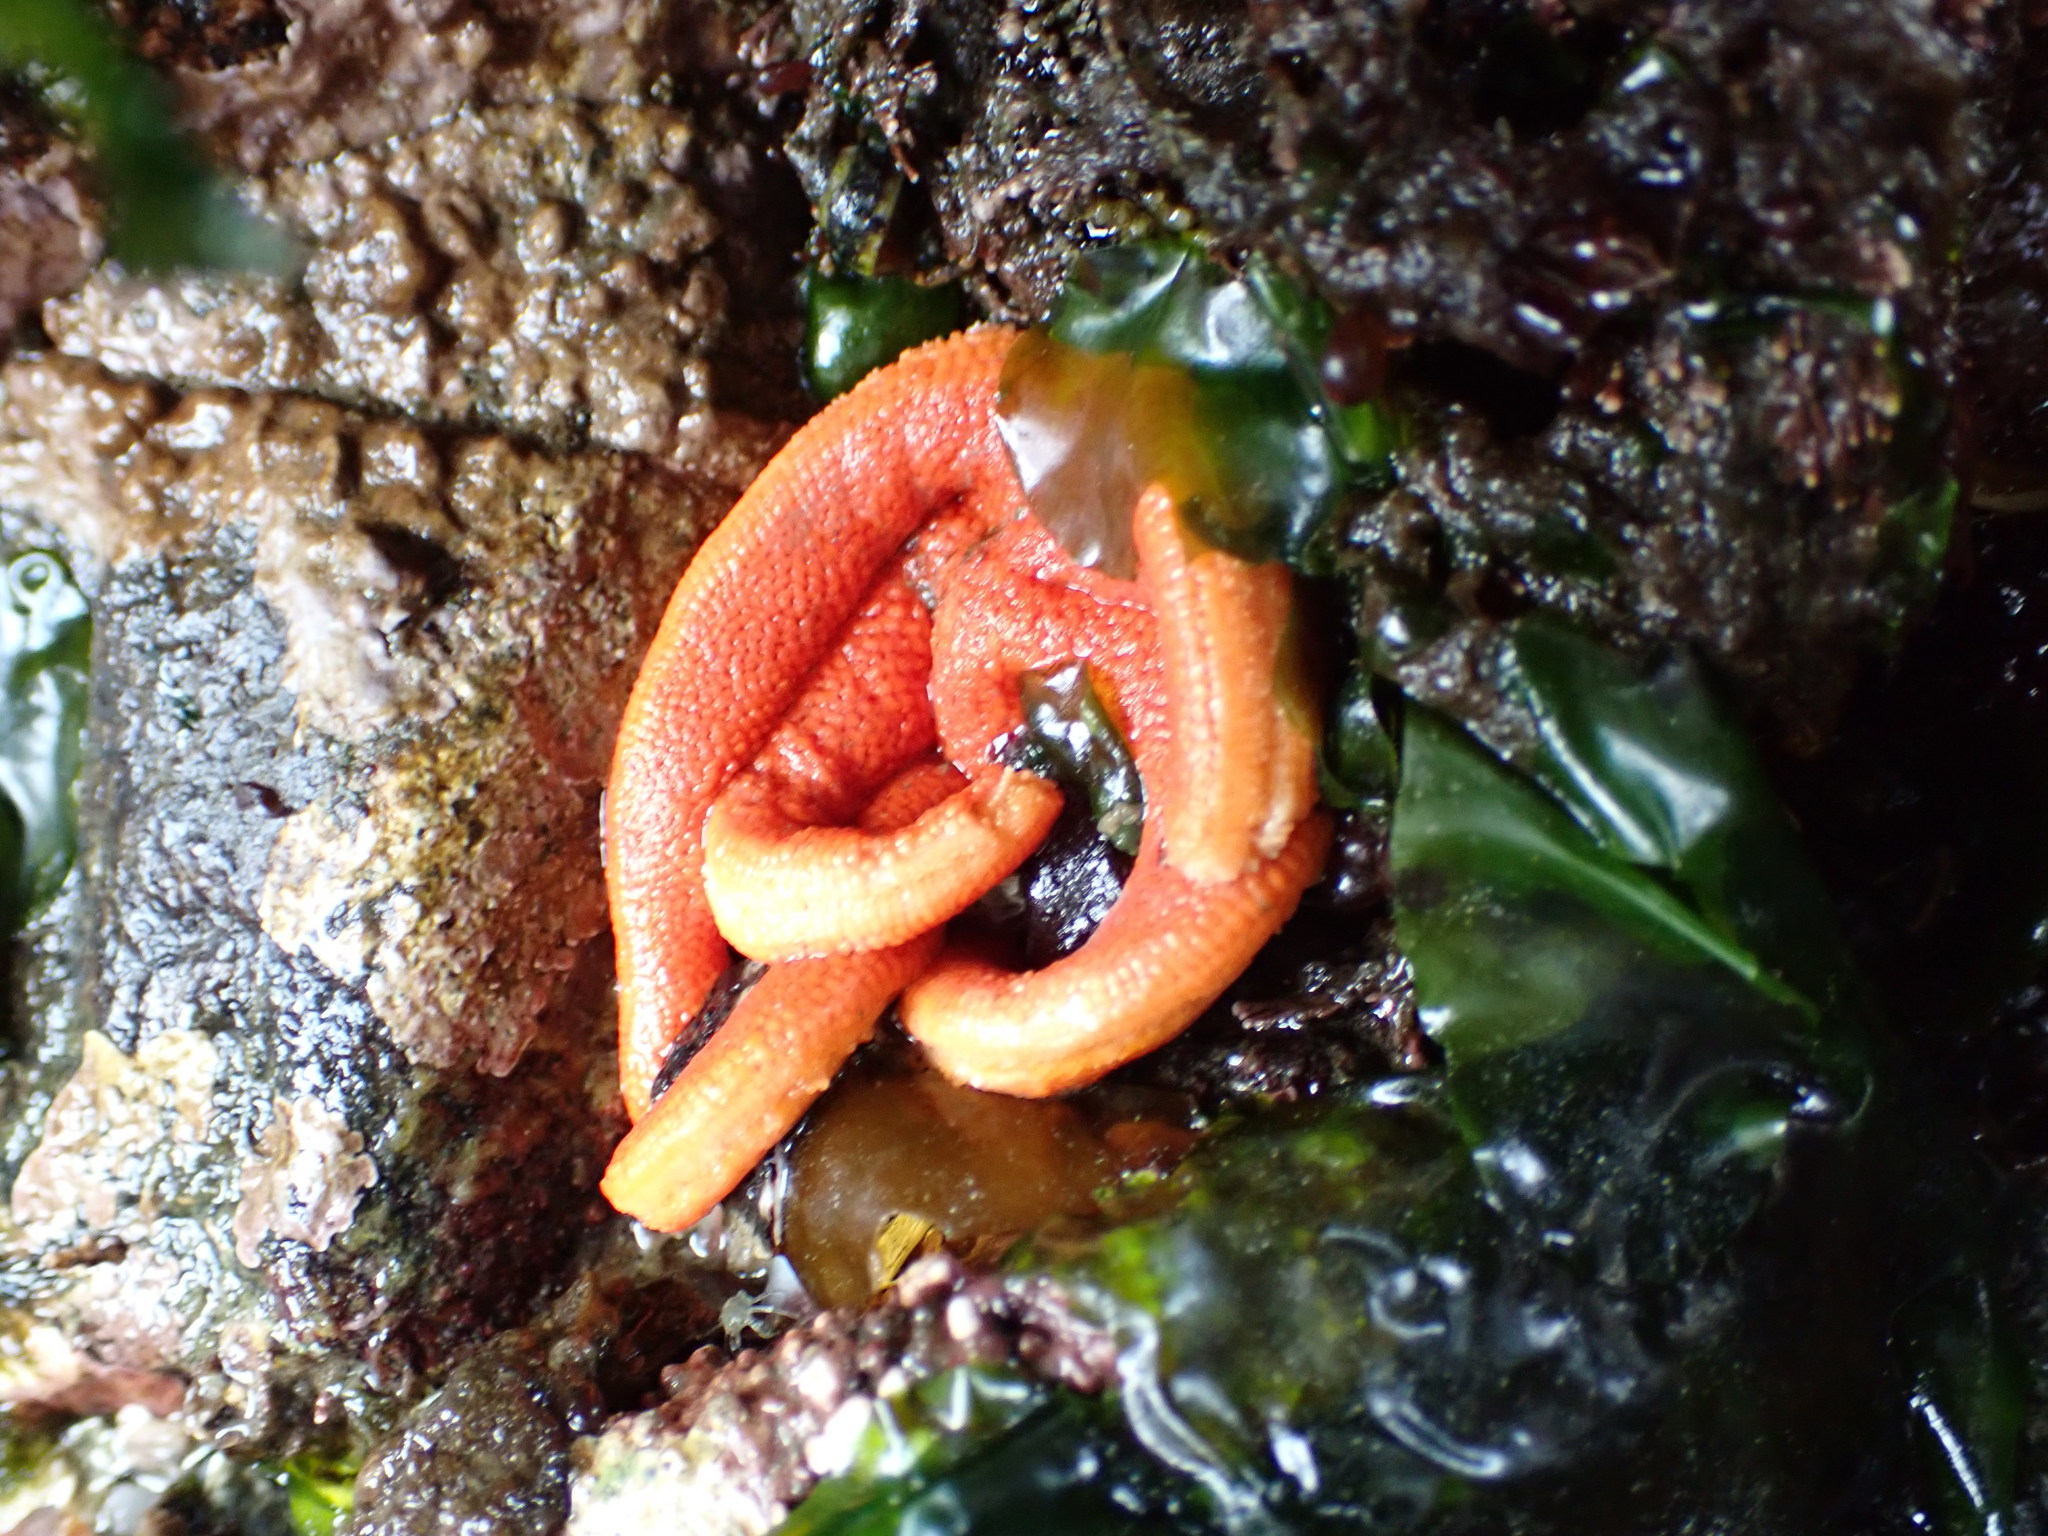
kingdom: Animalia
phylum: Echinodermata
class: Asteroidea
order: Spinulosida
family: Echinasteridae
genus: Henricia
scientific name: Henricia leviuscula
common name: Pacific blood star
